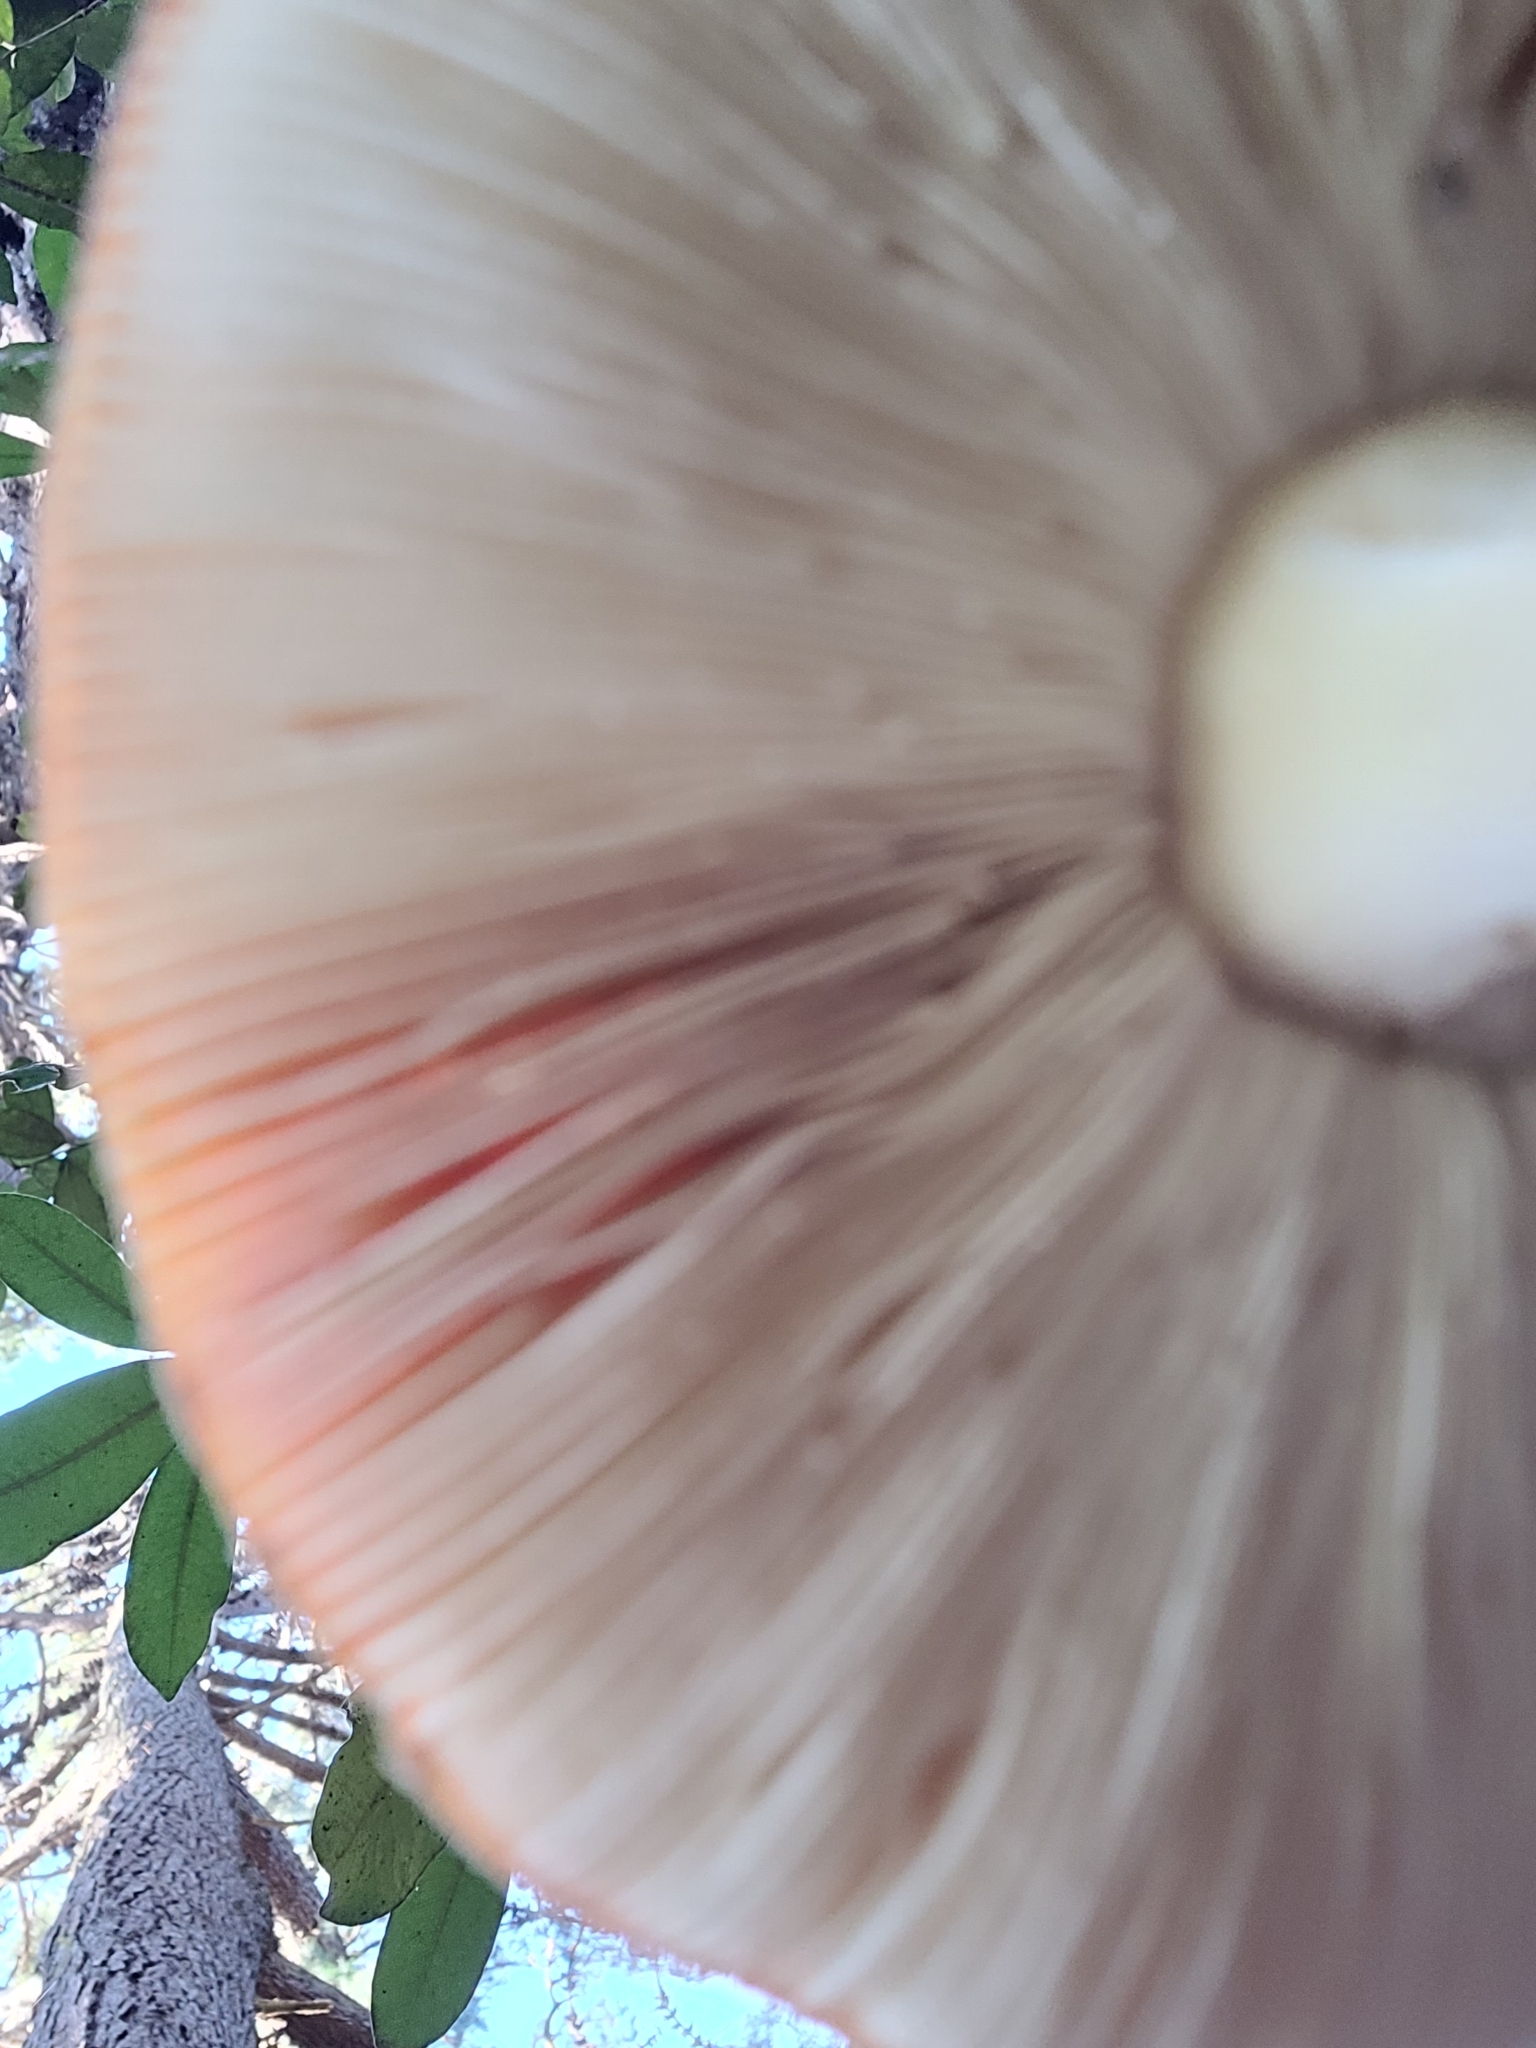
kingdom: Fungi
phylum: Basidiomycota
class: Agaricomycetes
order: Agaricales
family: Amanitaceae
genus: Amanita
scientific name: Amanita muscaria
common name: Fly agaric
